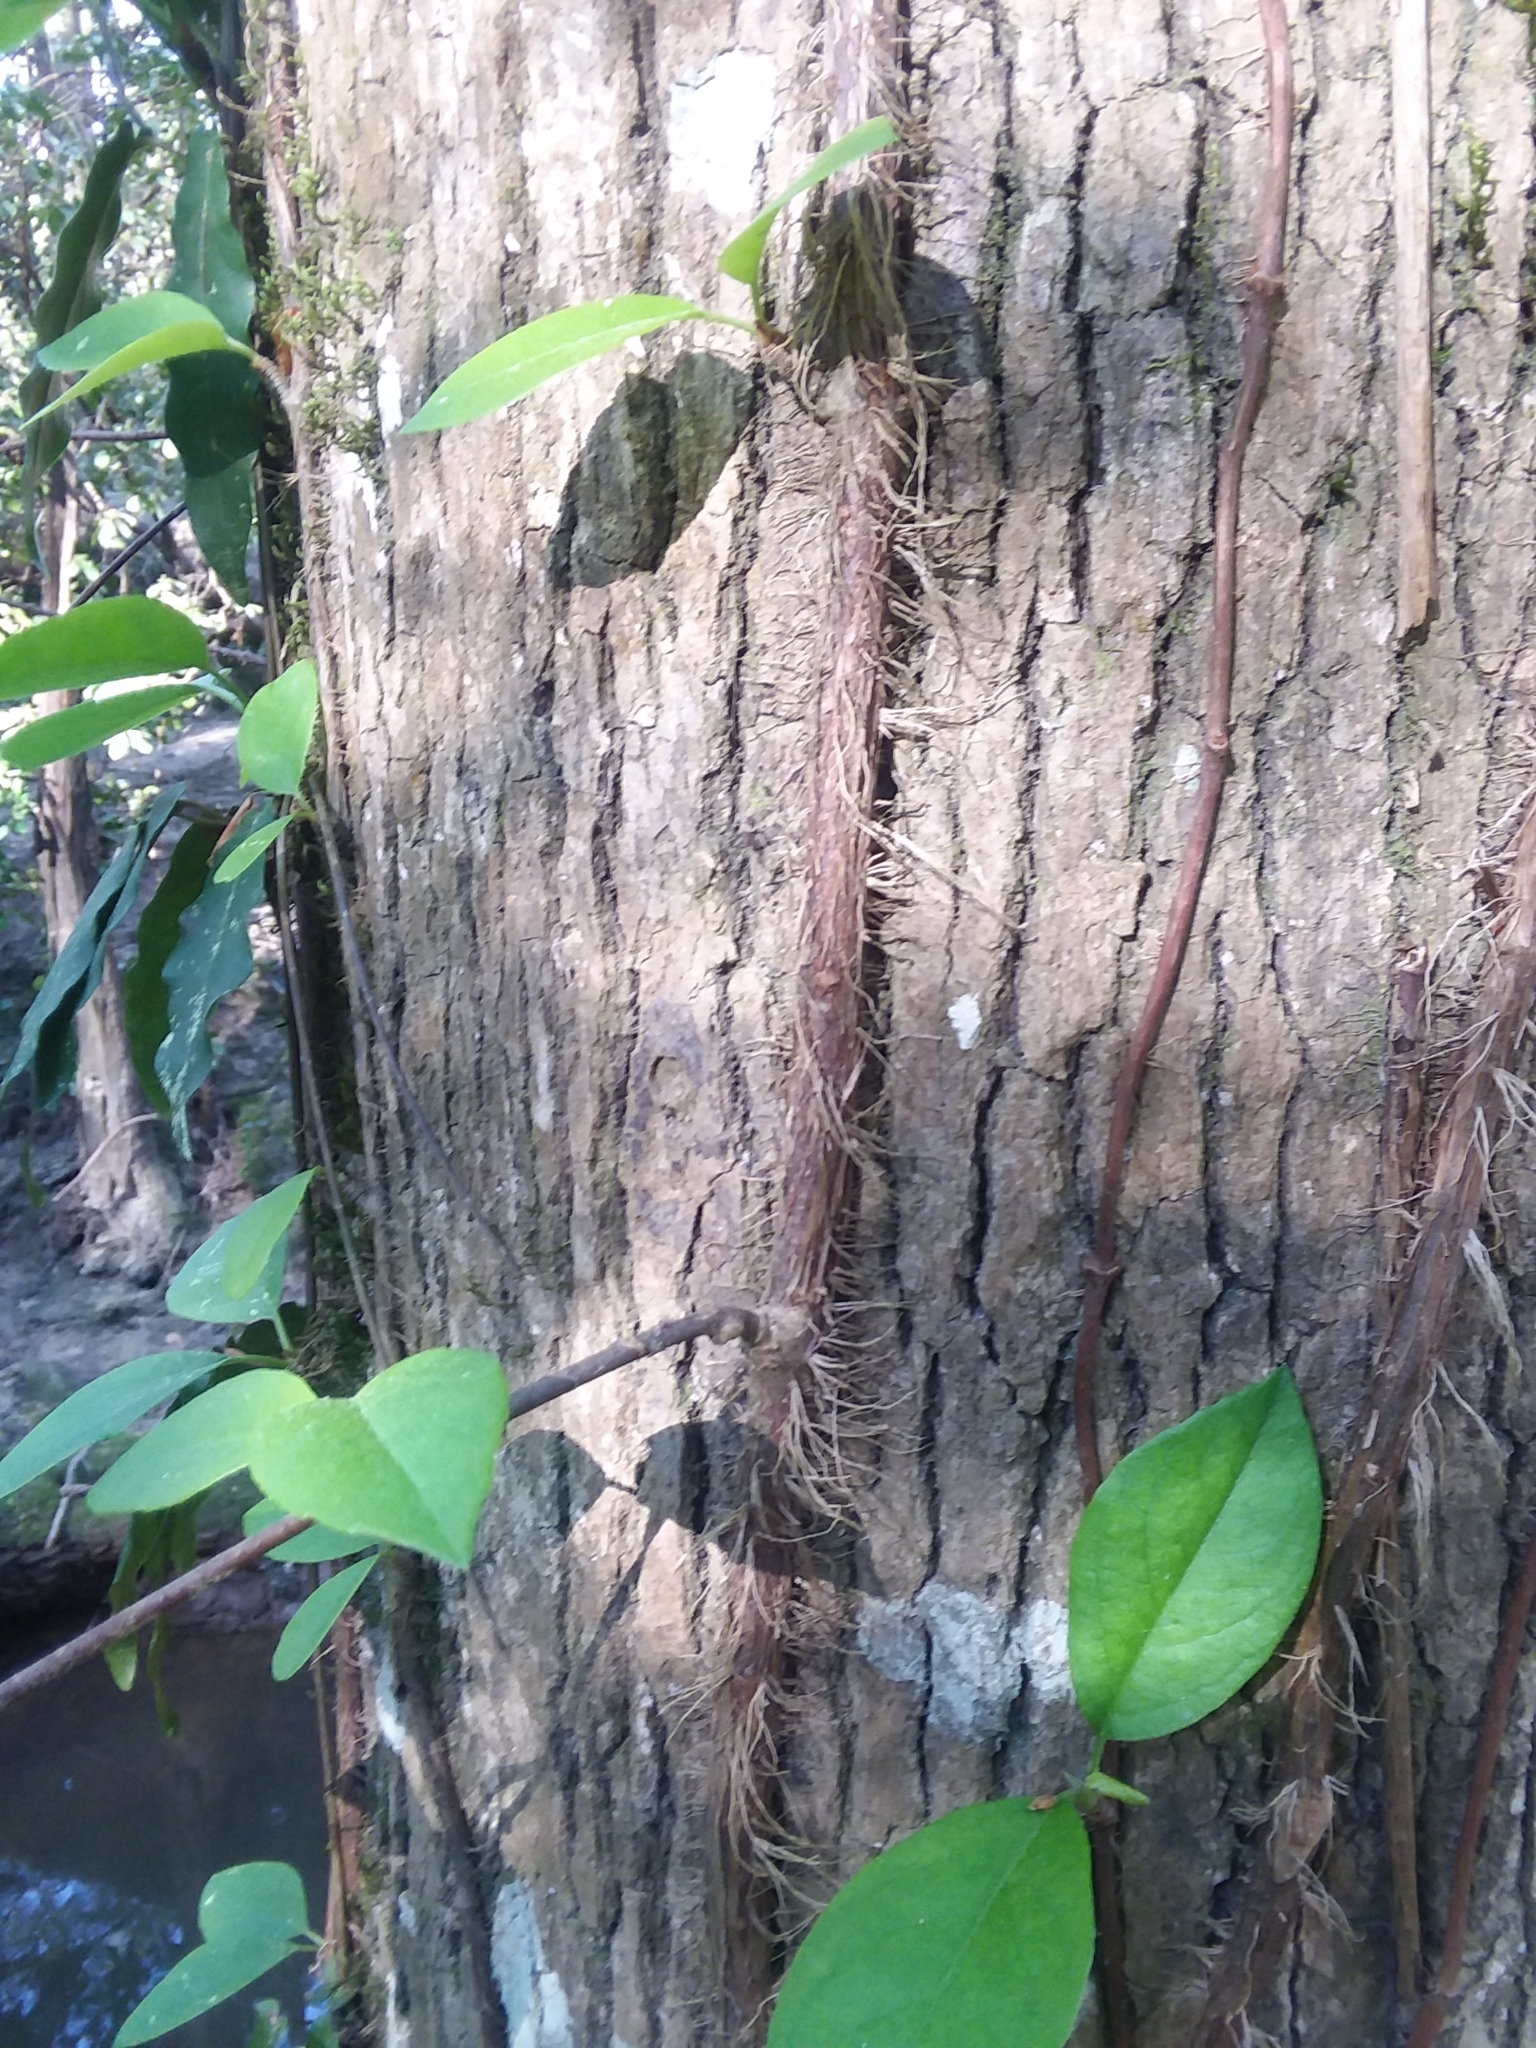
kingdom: Plantae
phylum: Tracheophyta
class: Magnoliopsida
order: Cornales
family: Hydrangeaceae
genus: Hydrangea
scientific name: Hydrangea barbara
